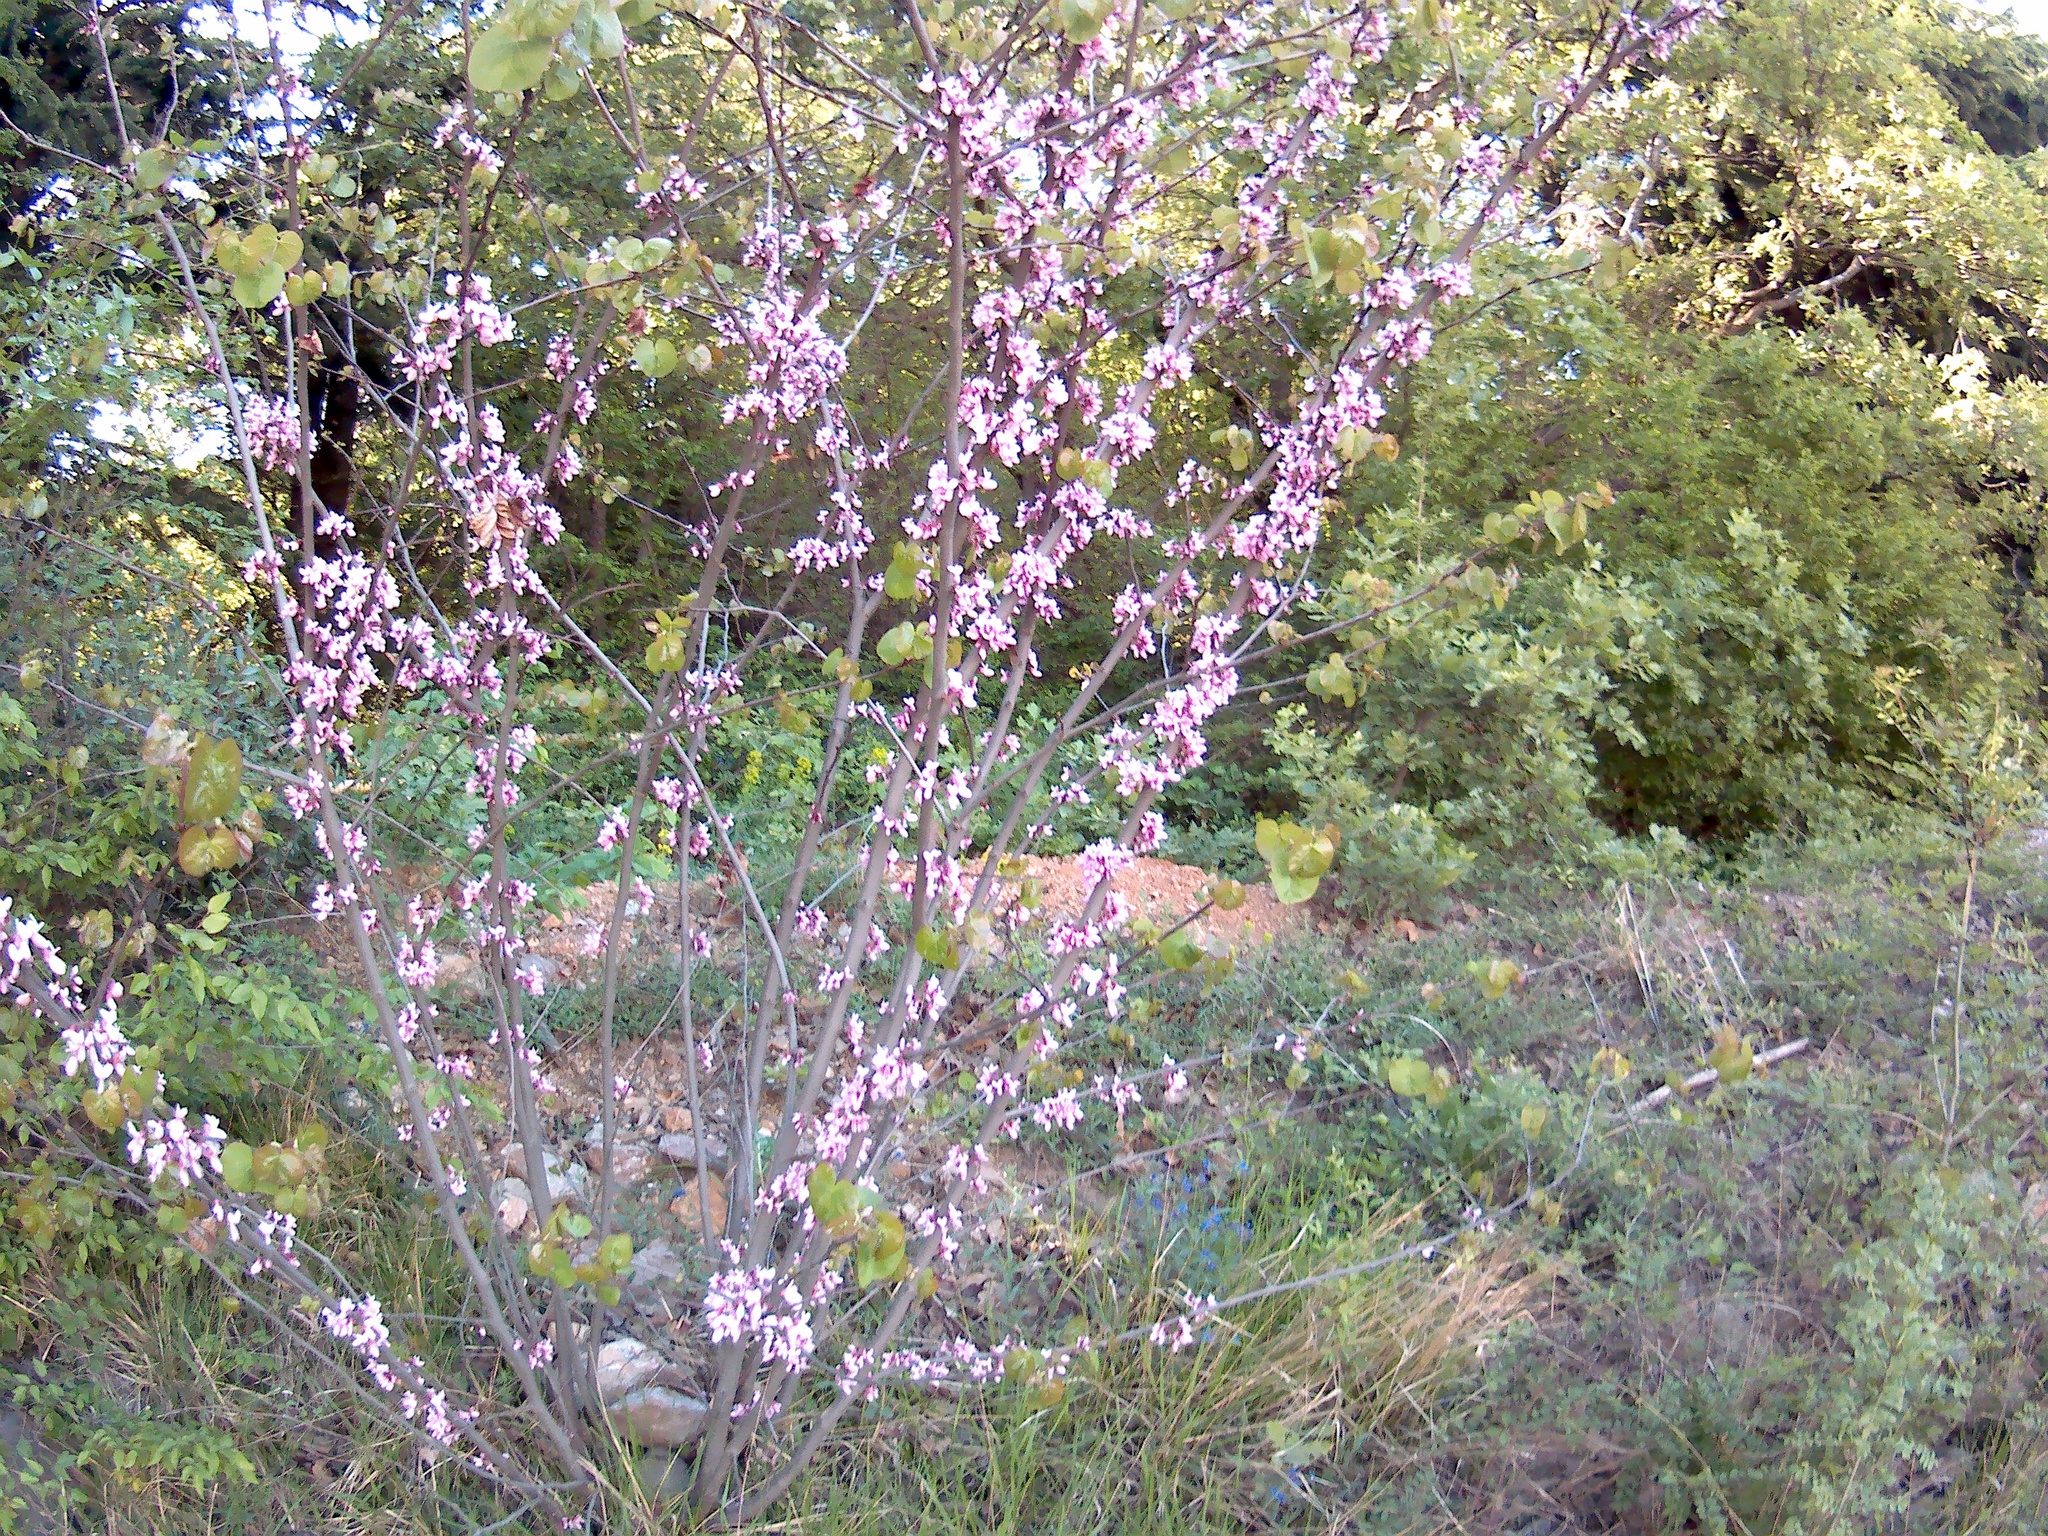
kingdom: Plantae
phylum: Tracheophyta
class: Magnoliopsida
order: Fabales
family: Fabaceae
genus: Cercis
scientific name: Cercis siliquastrum
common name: Judas tree
